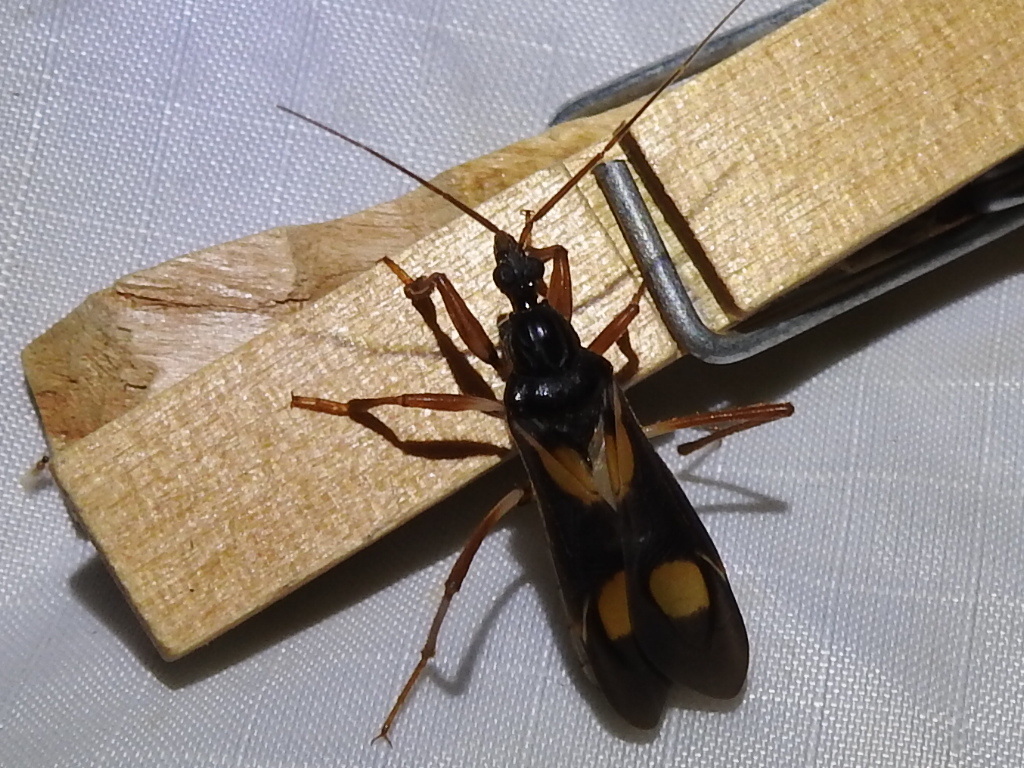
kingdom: Animalia
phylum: Arthropoda
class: Insecta
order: Hemiptera
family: Reduviidae
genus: Rasahus
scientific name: Rasahus hamatus
